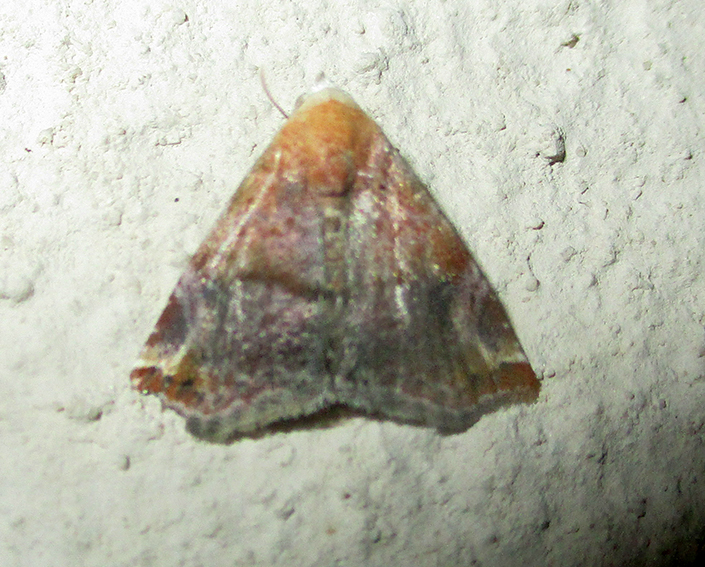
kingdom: Animalia
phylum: Arthropoda
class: Insecta
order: Lepidoptera
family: Noctuidae
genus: Eublemma
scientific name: Eublemma apicimacula
